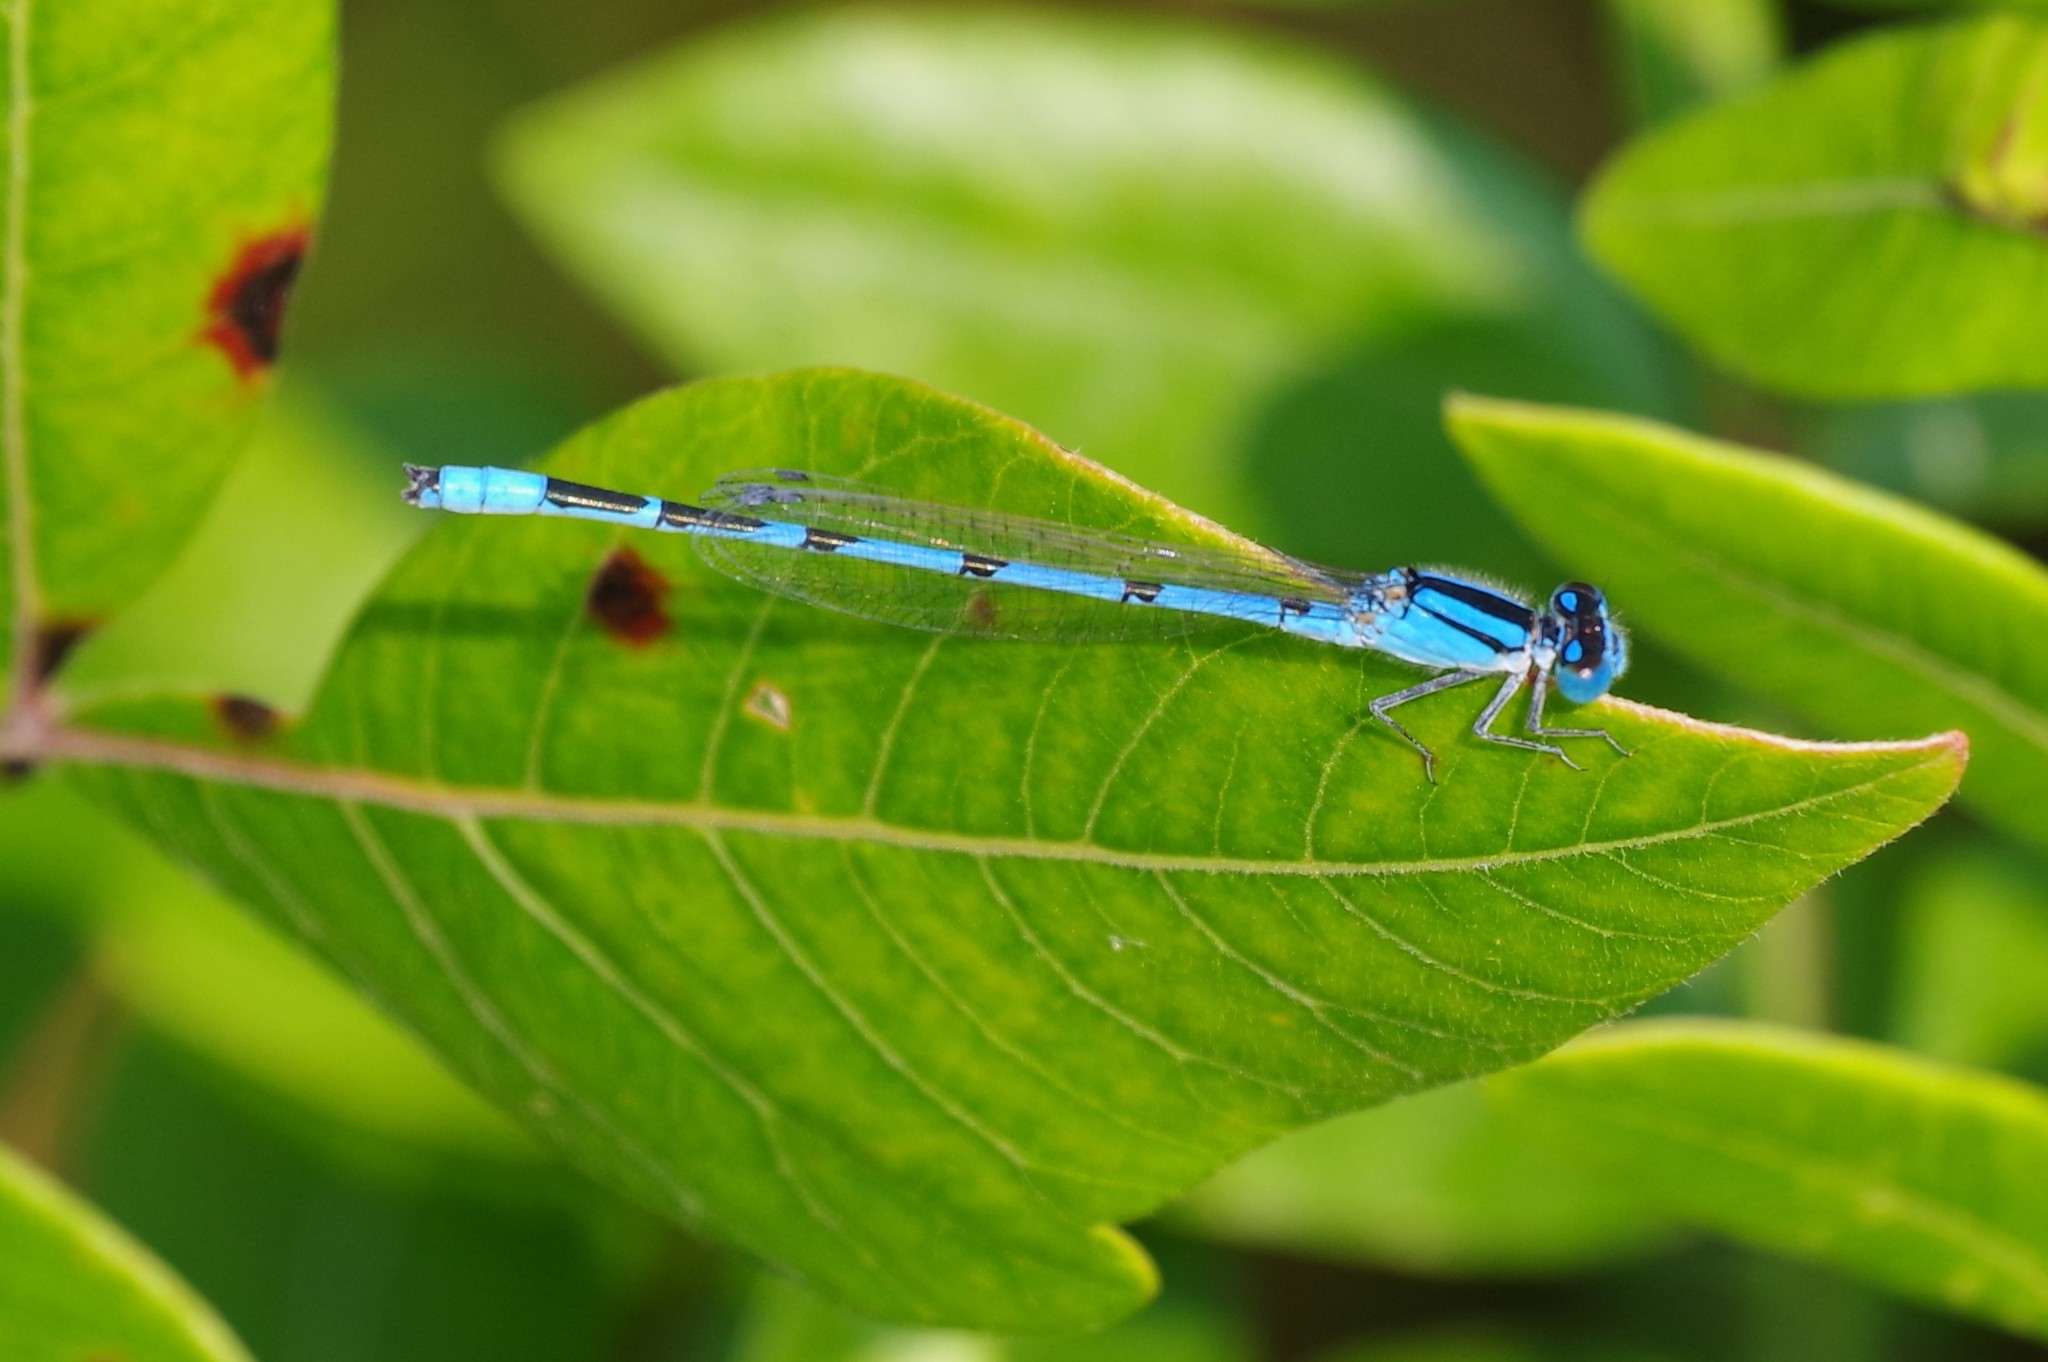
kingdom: Animalia
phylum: Arthropoda
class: Insecta
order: Odonata
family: Coenagrionidae
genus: Enallagma
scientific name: Enallagma civile
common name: Damselfly
